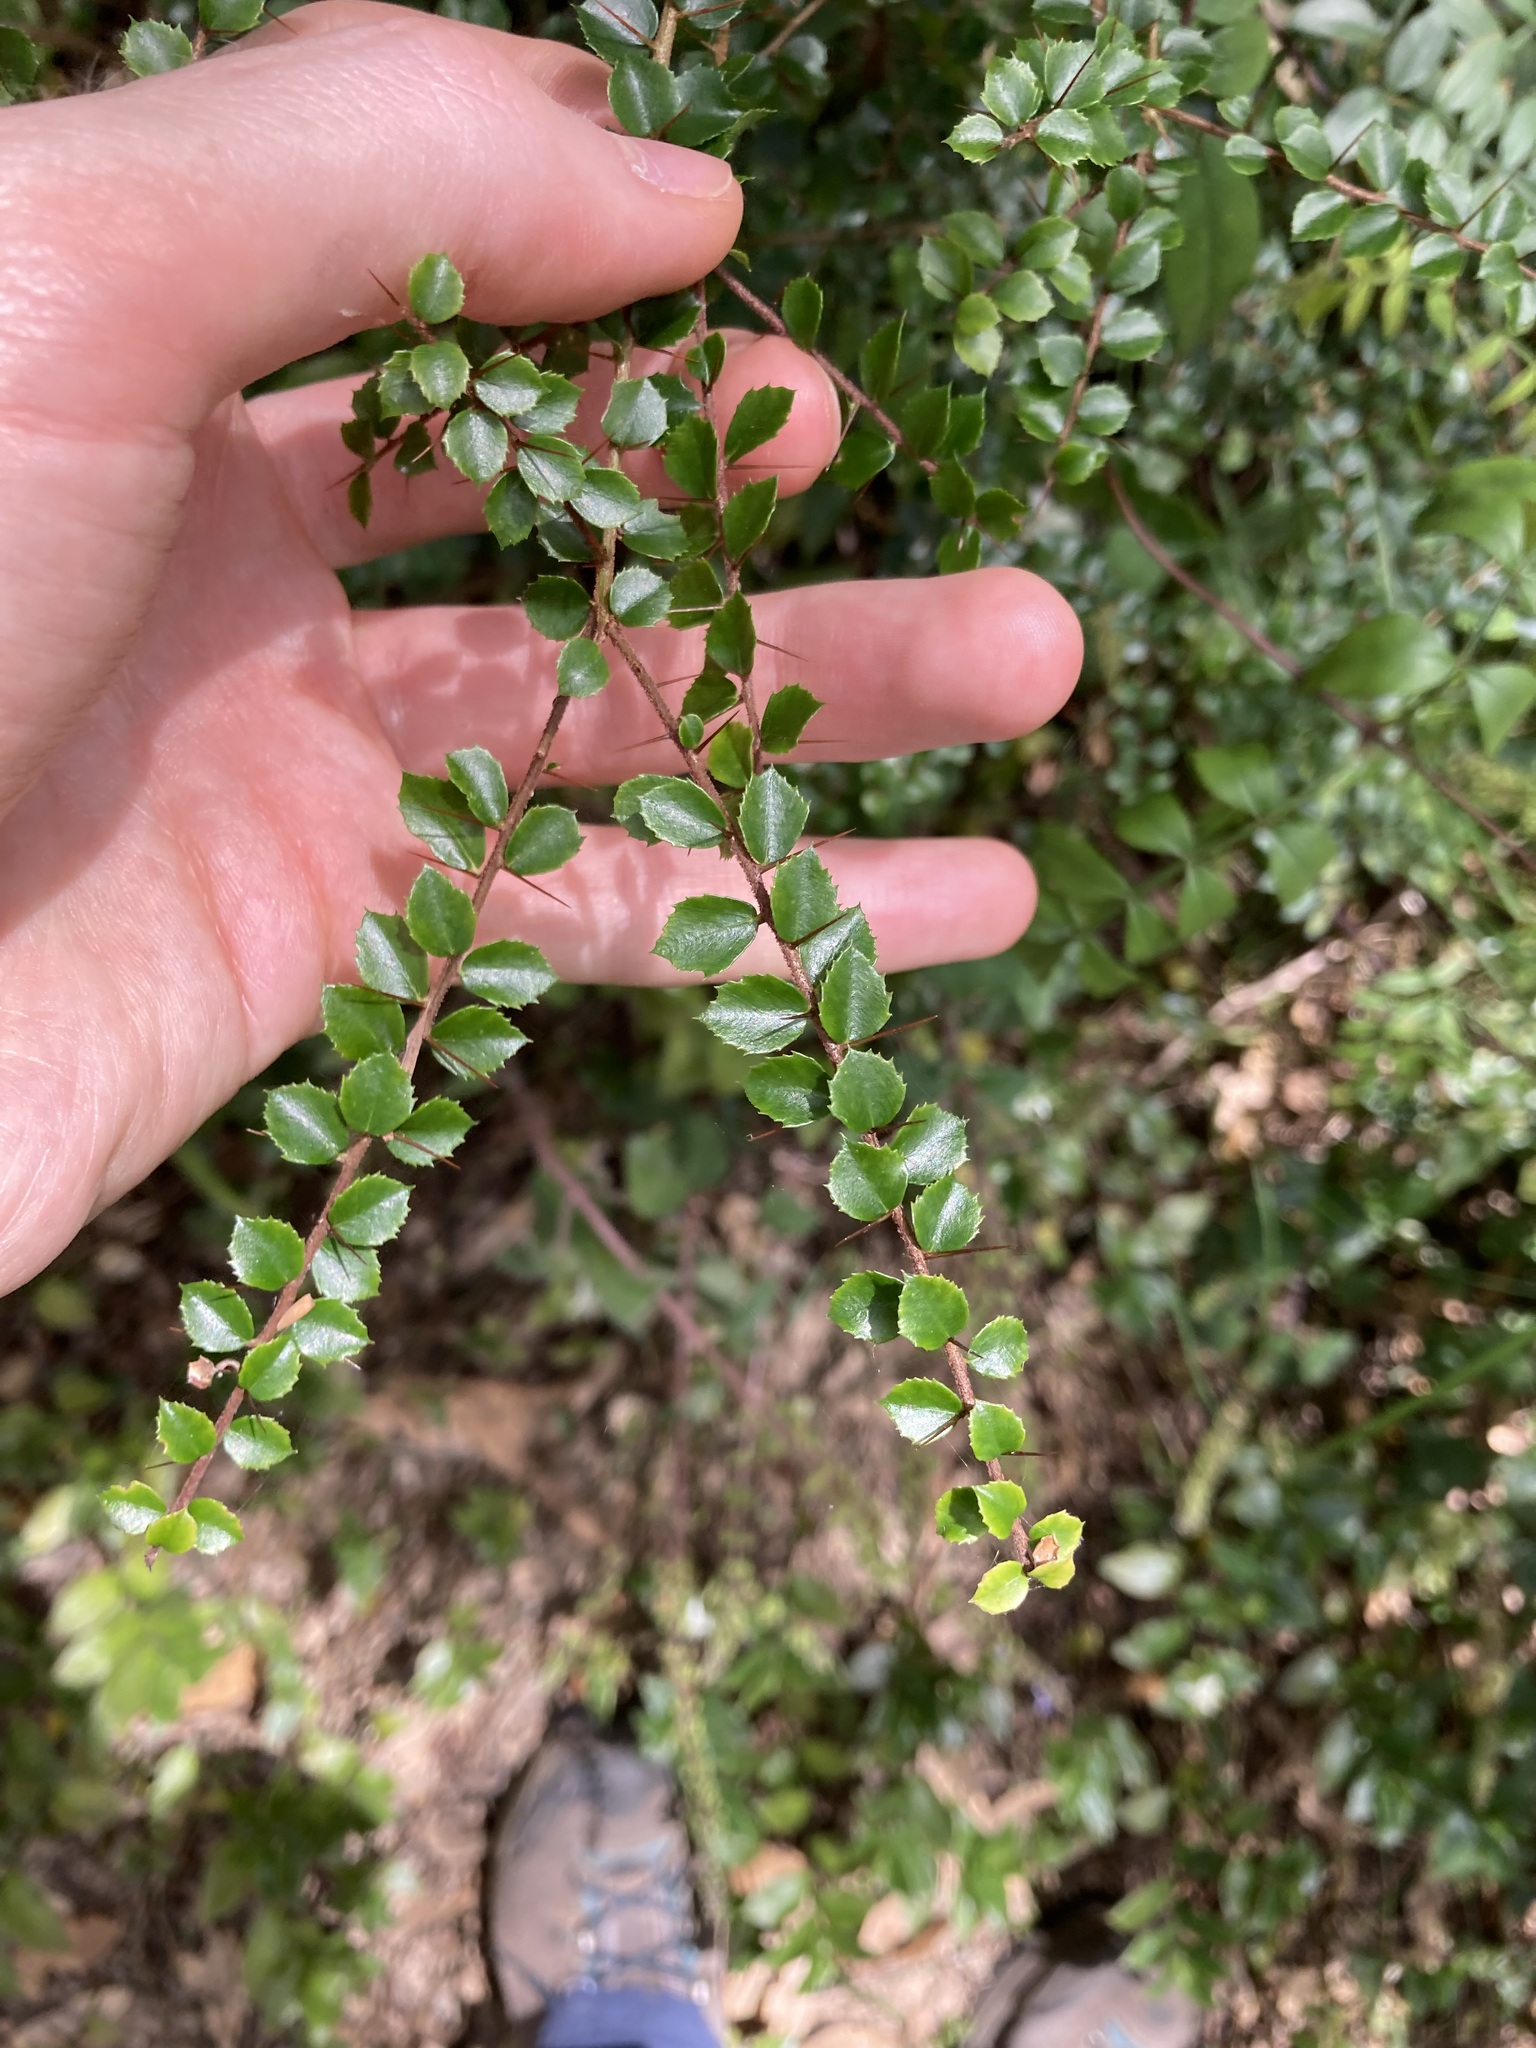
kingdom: Plantae
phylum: Tracheophyta
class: Magnoliopsida
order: Apiales
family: Pittosporaceae
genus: Pittosporum
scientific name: Pittosporum multiflorum
